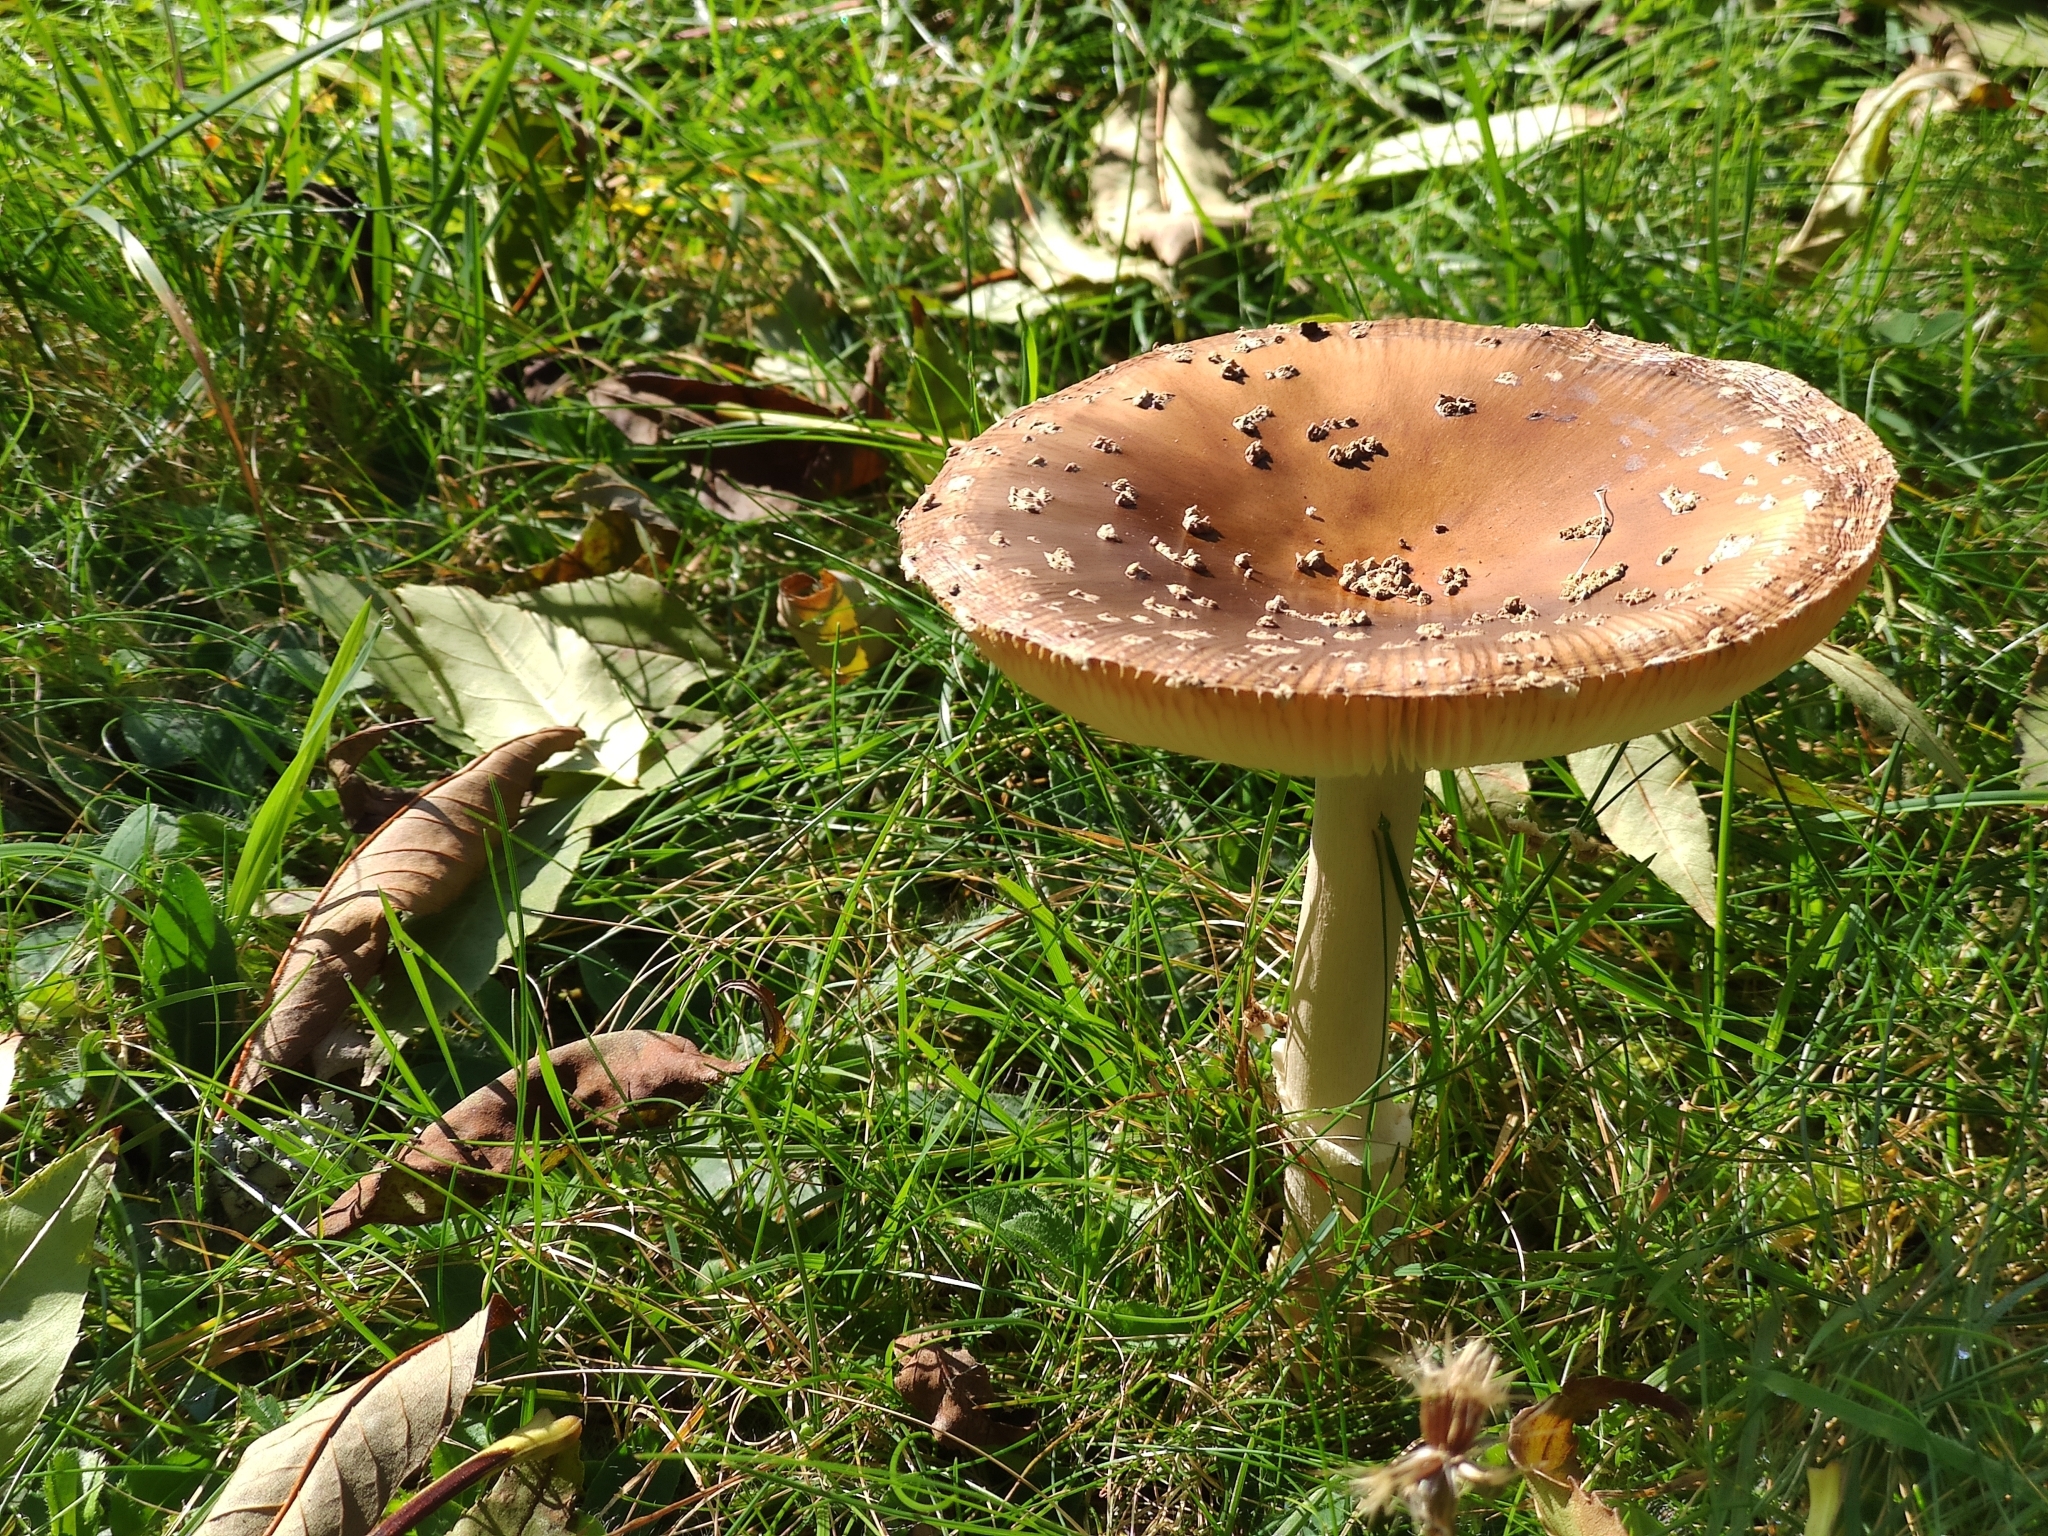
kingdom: Fungi
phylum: Basidiomycota
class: Agaricomycetes
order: Agaricales
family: Amanitaceae
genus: Amanita
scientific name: Amanita pantherina
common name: Panthercap
